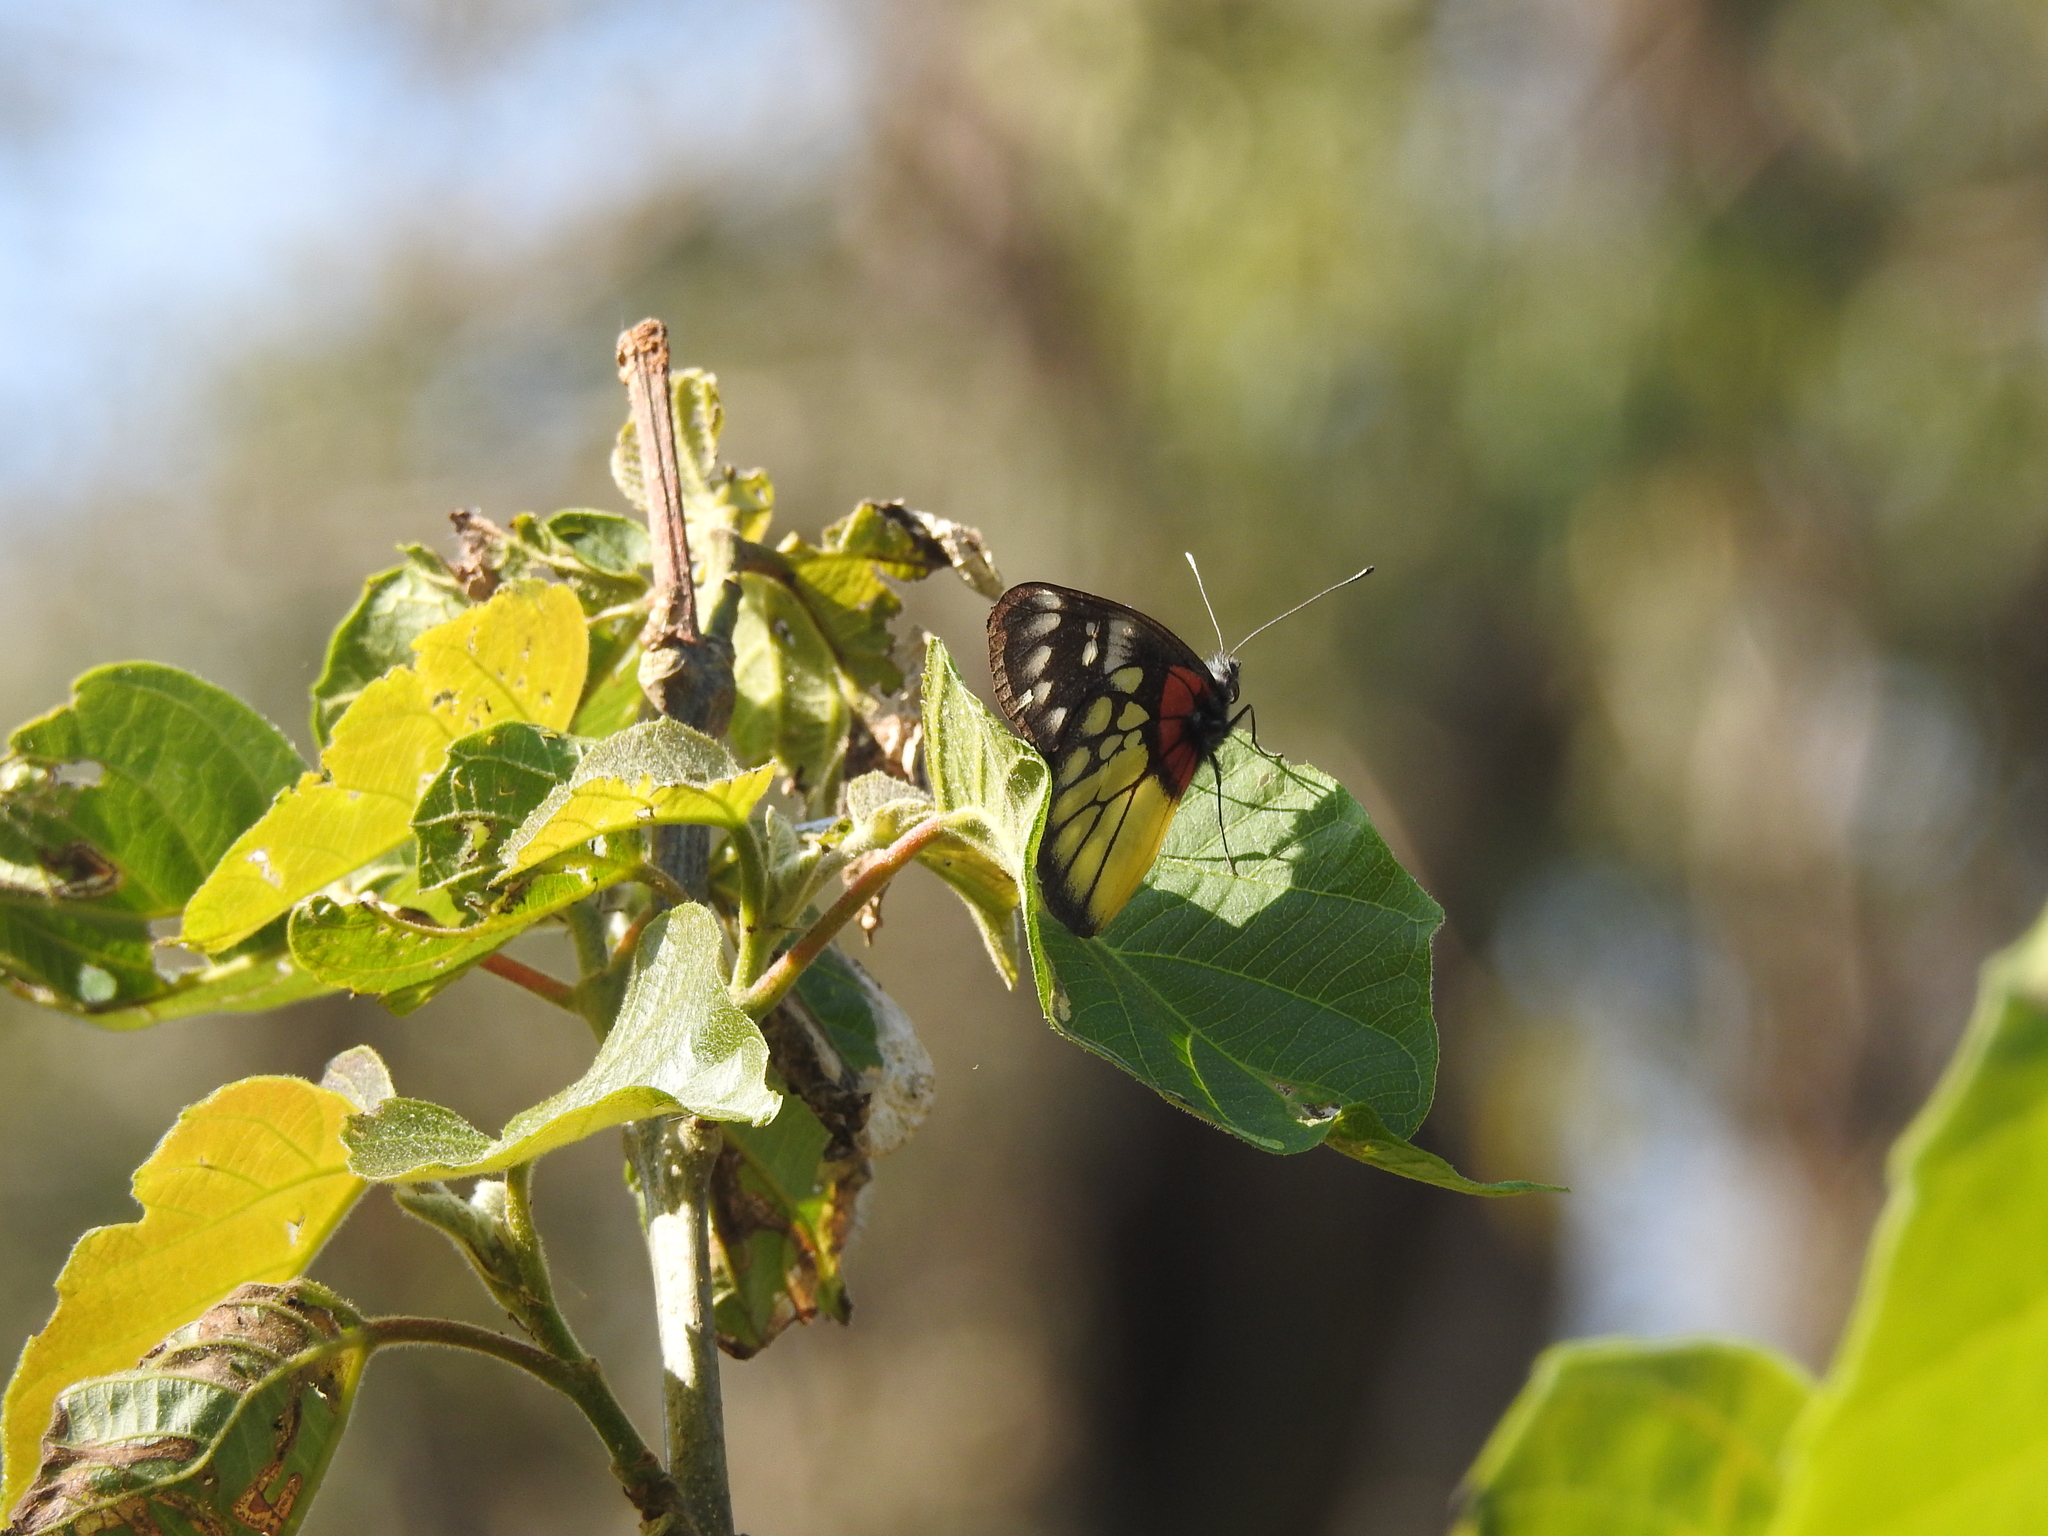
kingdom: Animalia
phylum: Arthropoda
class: Insecta
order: Lepidoptera
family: Pieridae
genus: Delias
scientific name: Delias pasithoe
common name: Red-base jezebel
